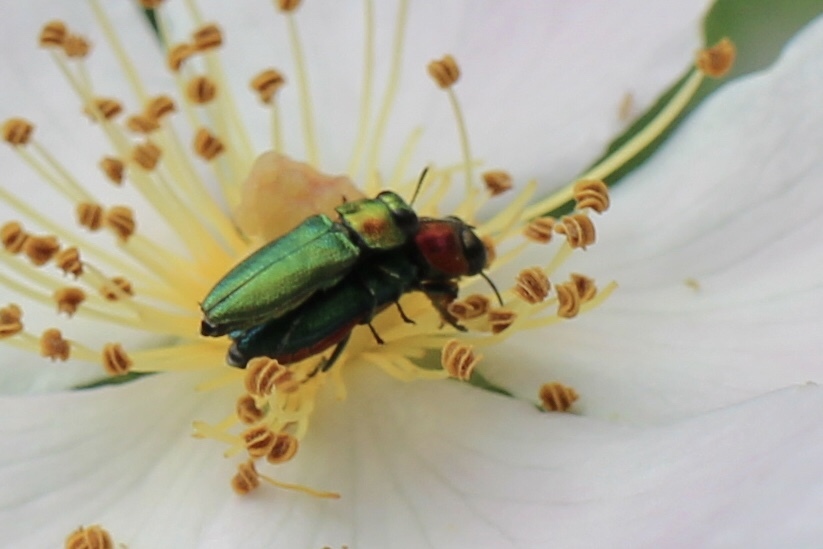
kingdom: Animalia
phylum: Arthropoda
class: Insecta
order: Coleoptera
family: Buprestidae
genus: Anthaxia
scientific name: Anthaxia nitidula
